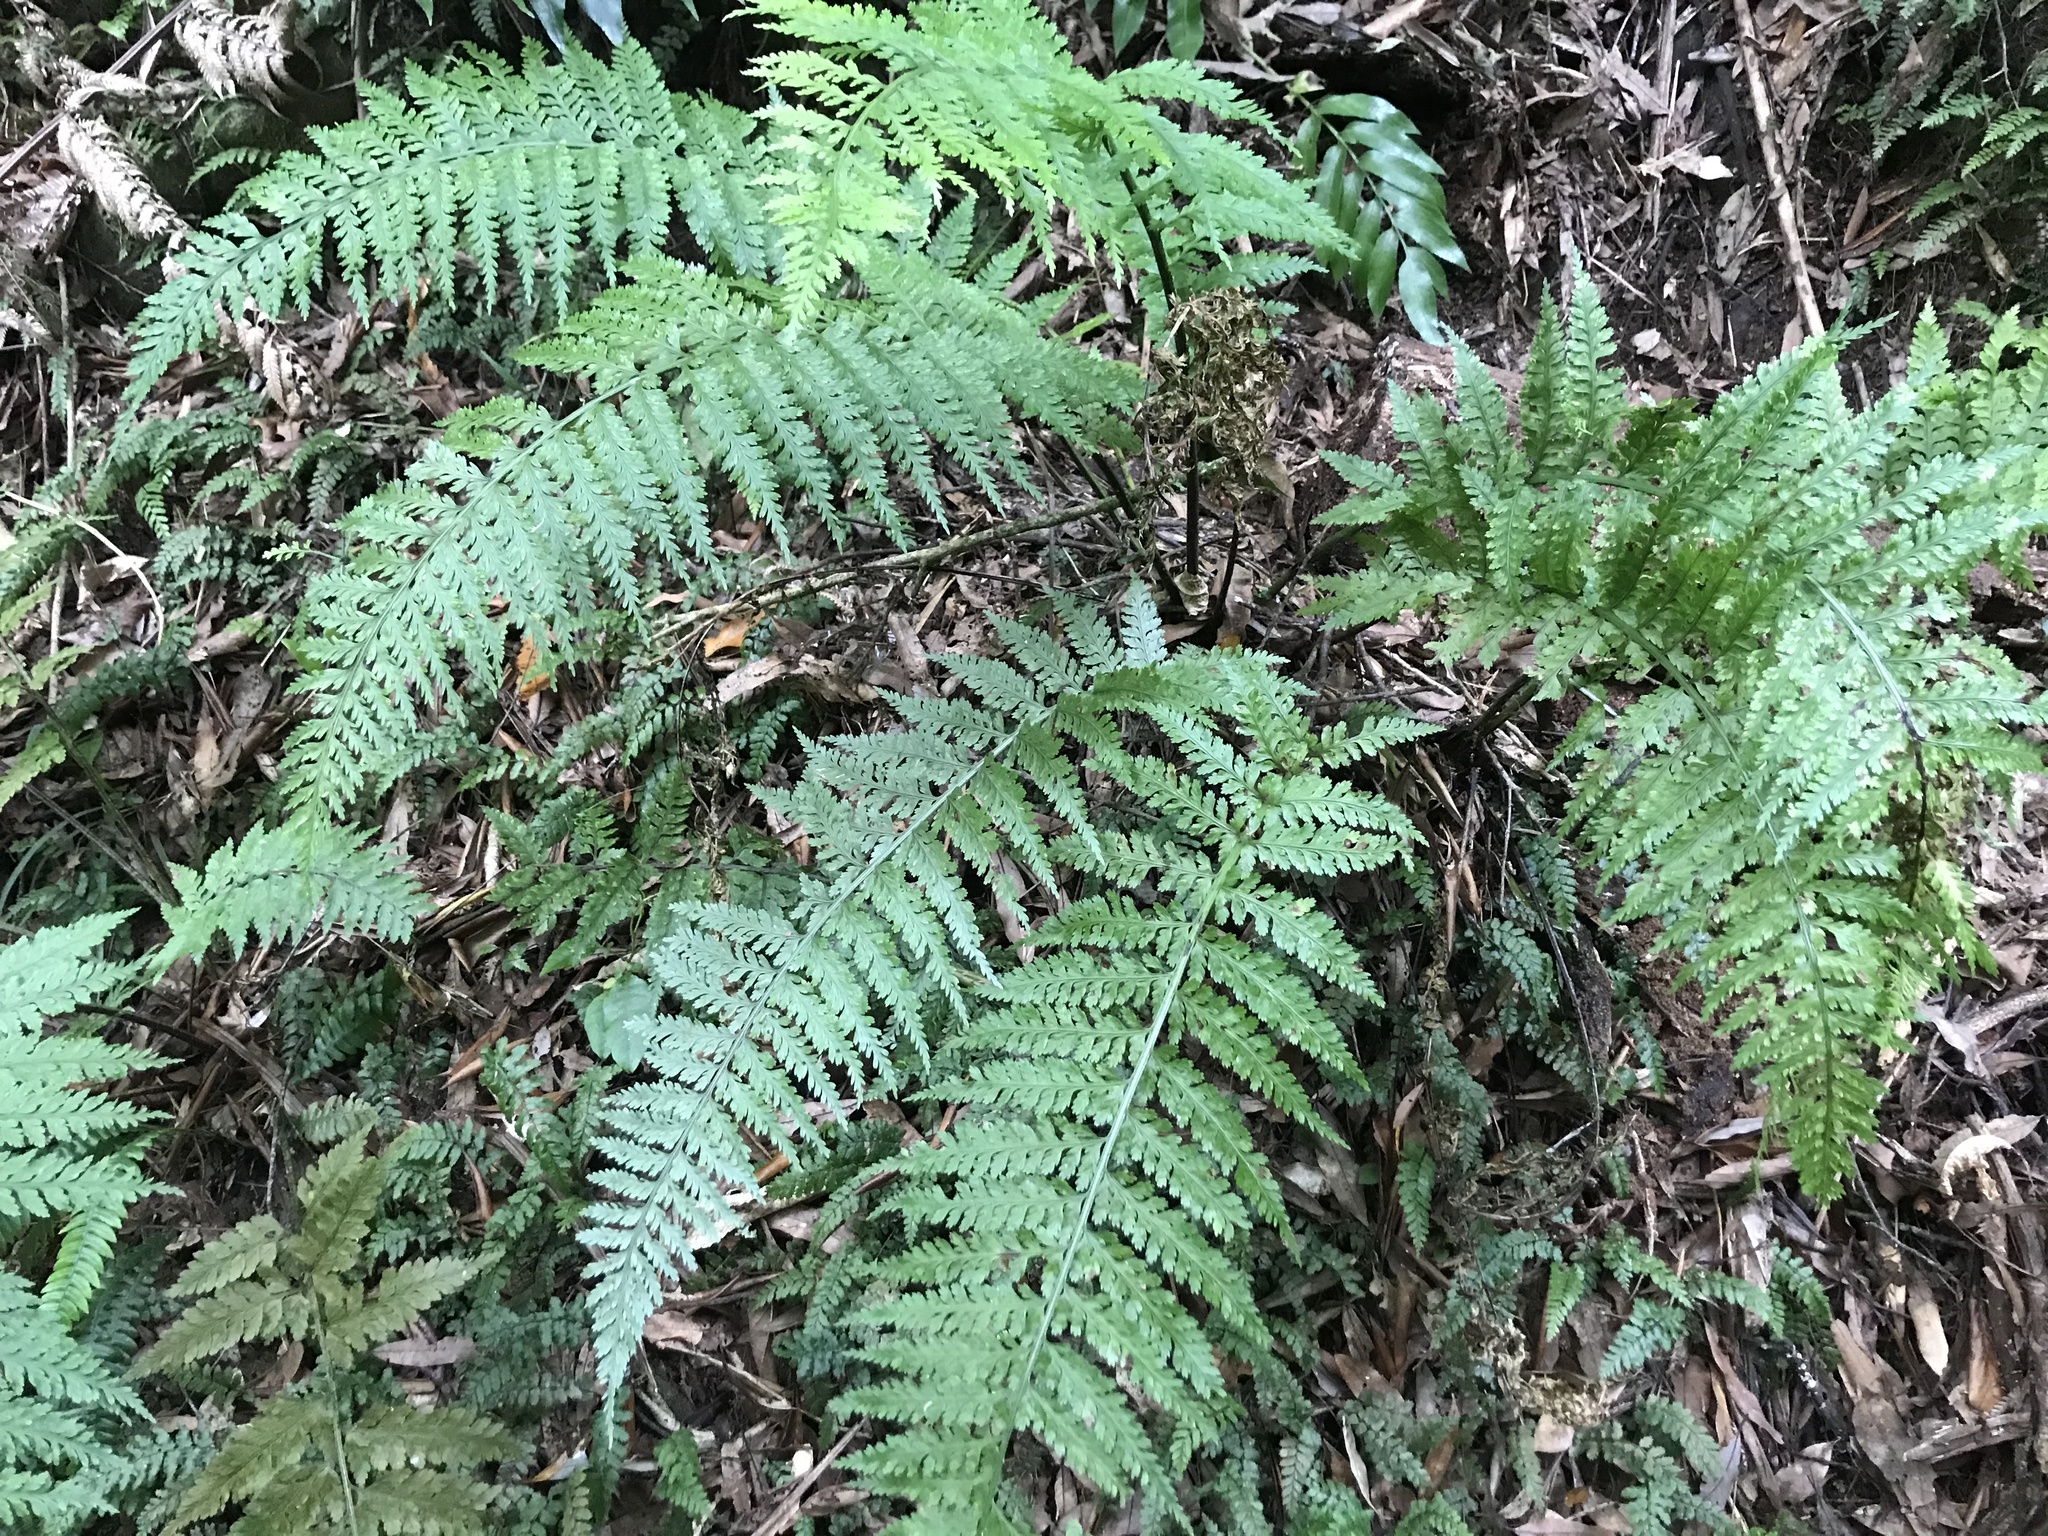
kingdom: Plantae
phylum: Tracheophyta
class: Polypodiopsida
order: Polypodiales
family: Aspleniaceae
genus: Asplenium
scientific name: Asplenium
